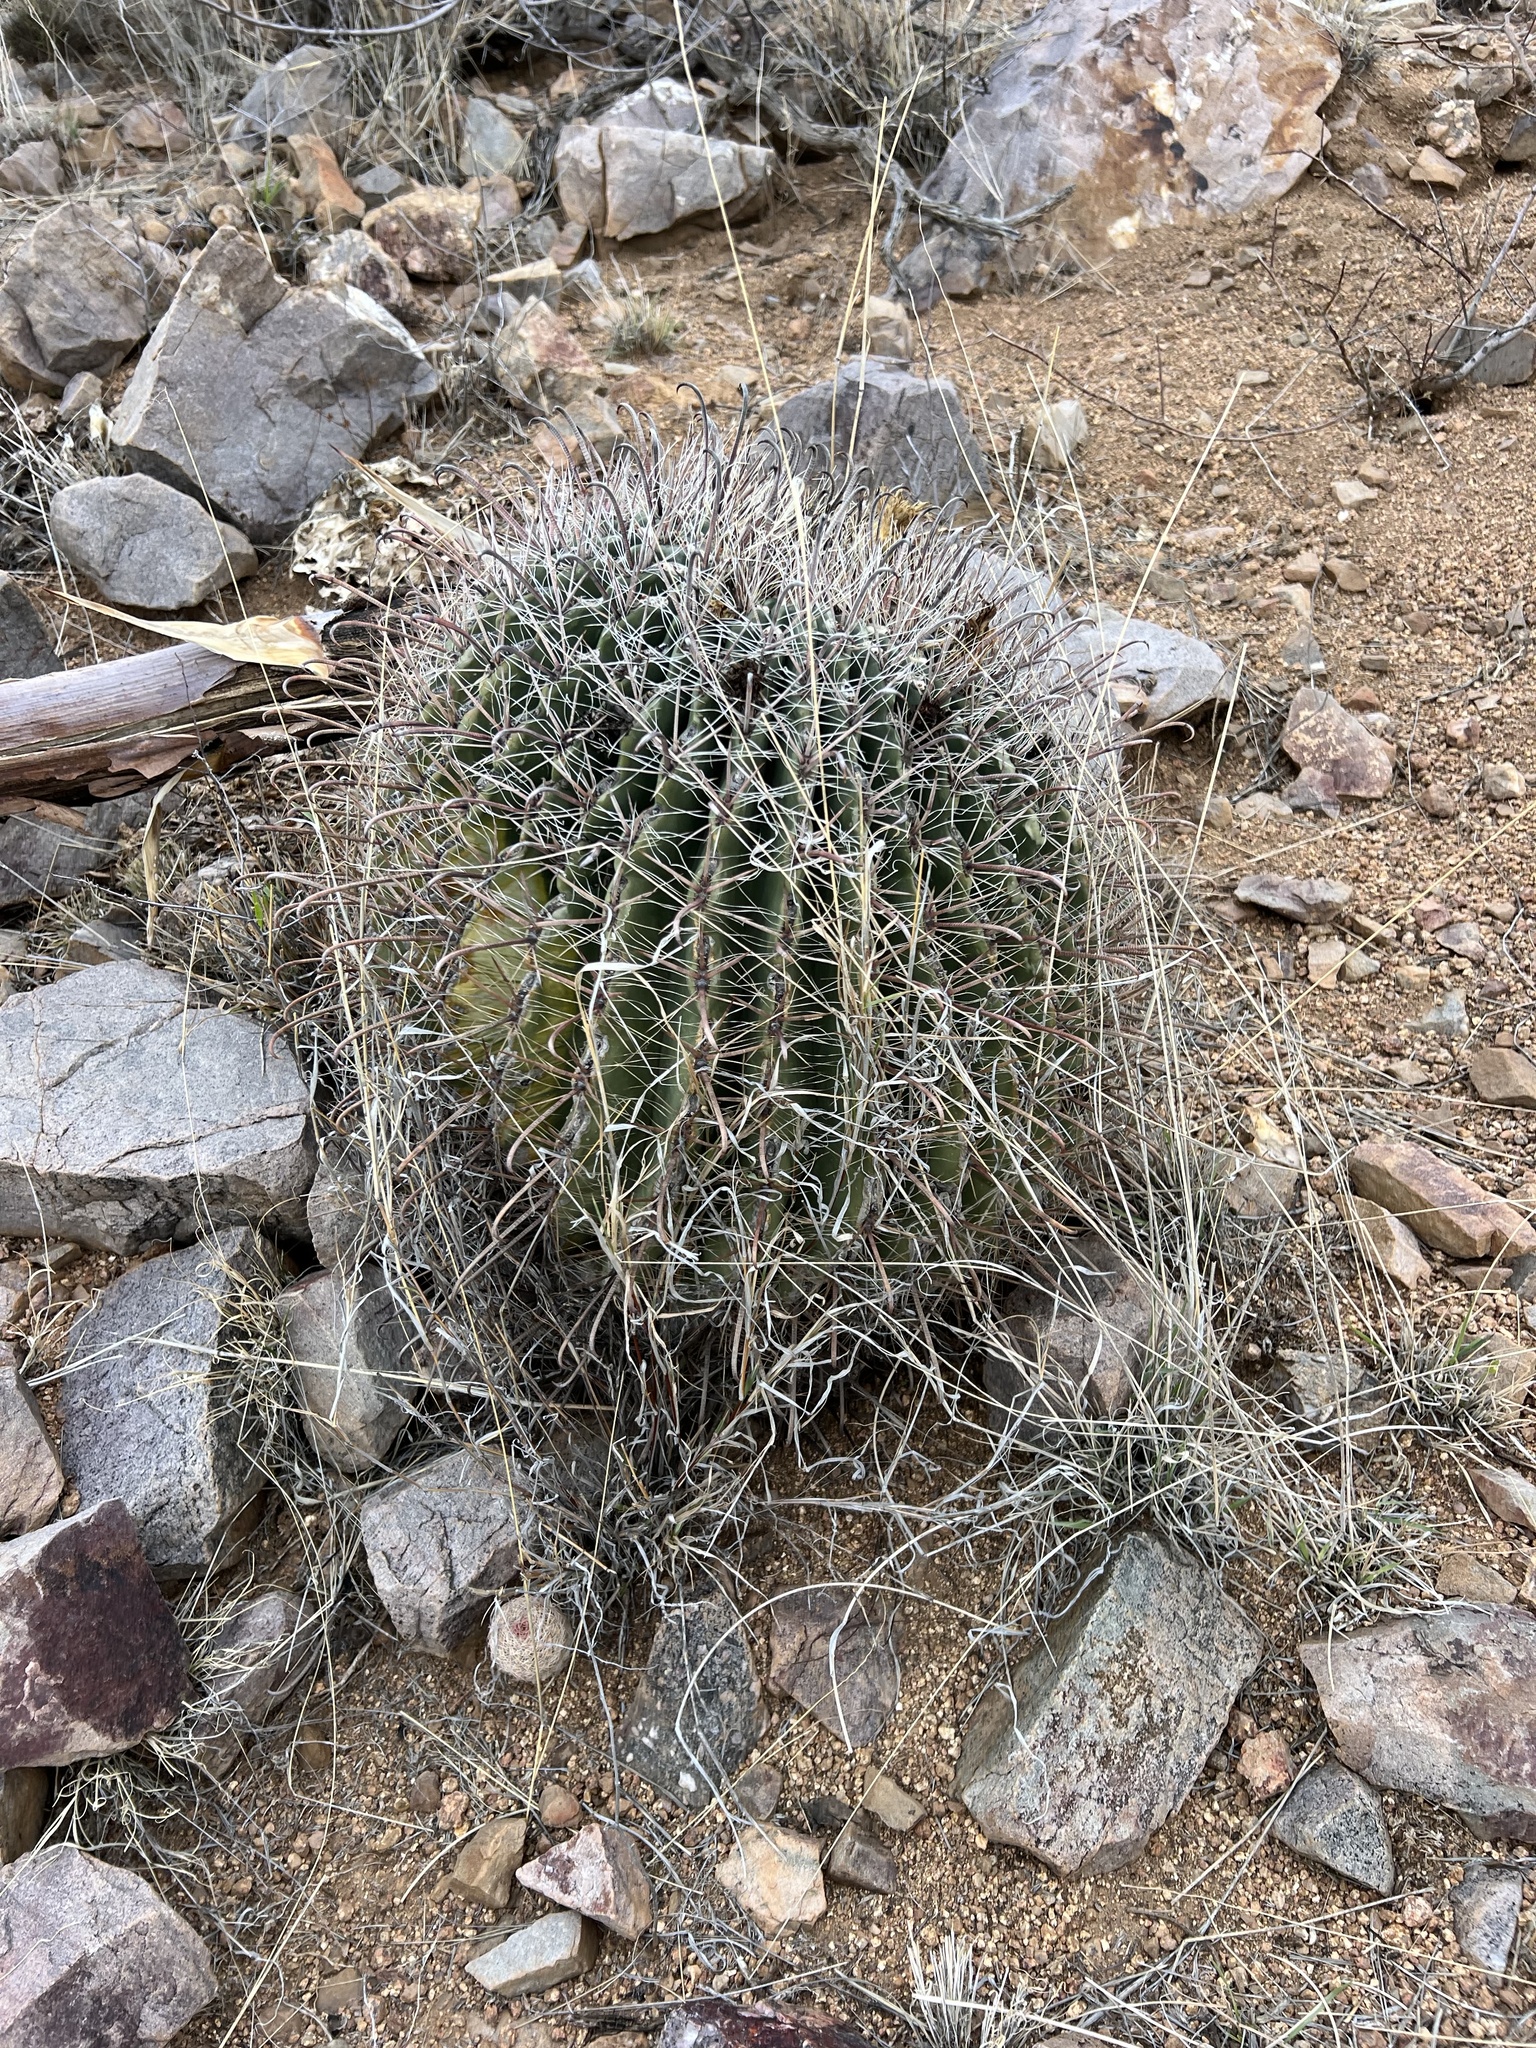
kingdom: Plantae
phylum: Tracheophyta
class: Magnoliopsida
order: Caryophyllales
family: Cactaceae
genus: Ferocactus
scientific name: Ferocactus wislizeni
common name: Candy barrel cactus
